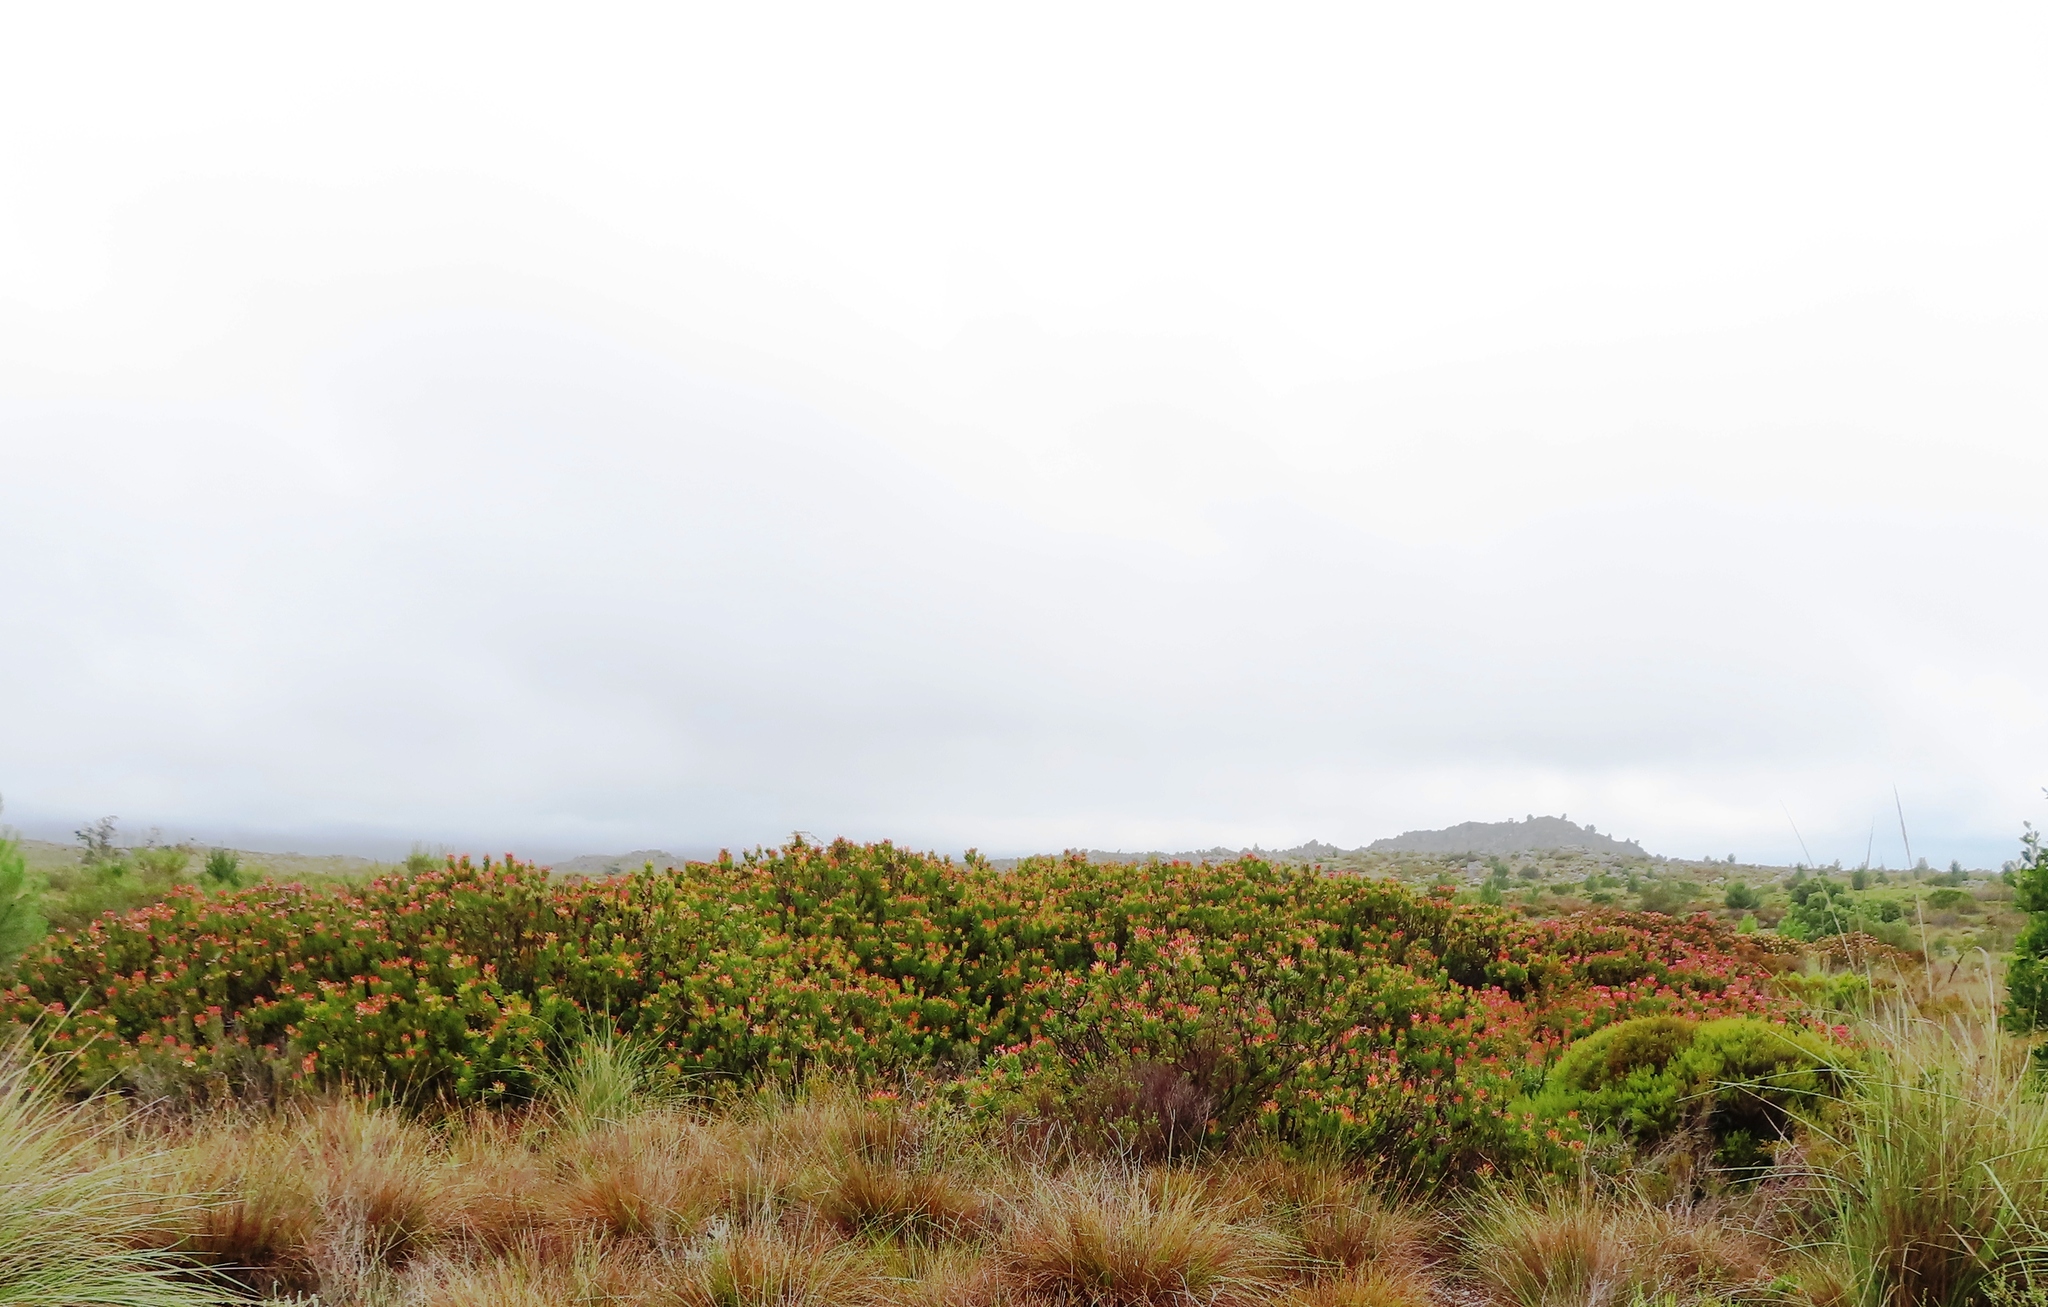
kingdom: Plantae
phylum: Tracheophyta
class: Magnoliopsida
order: Proteales
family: Proteaceae
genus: Mimetes
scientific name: Mimetes cucullatus
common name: Common pagoda
